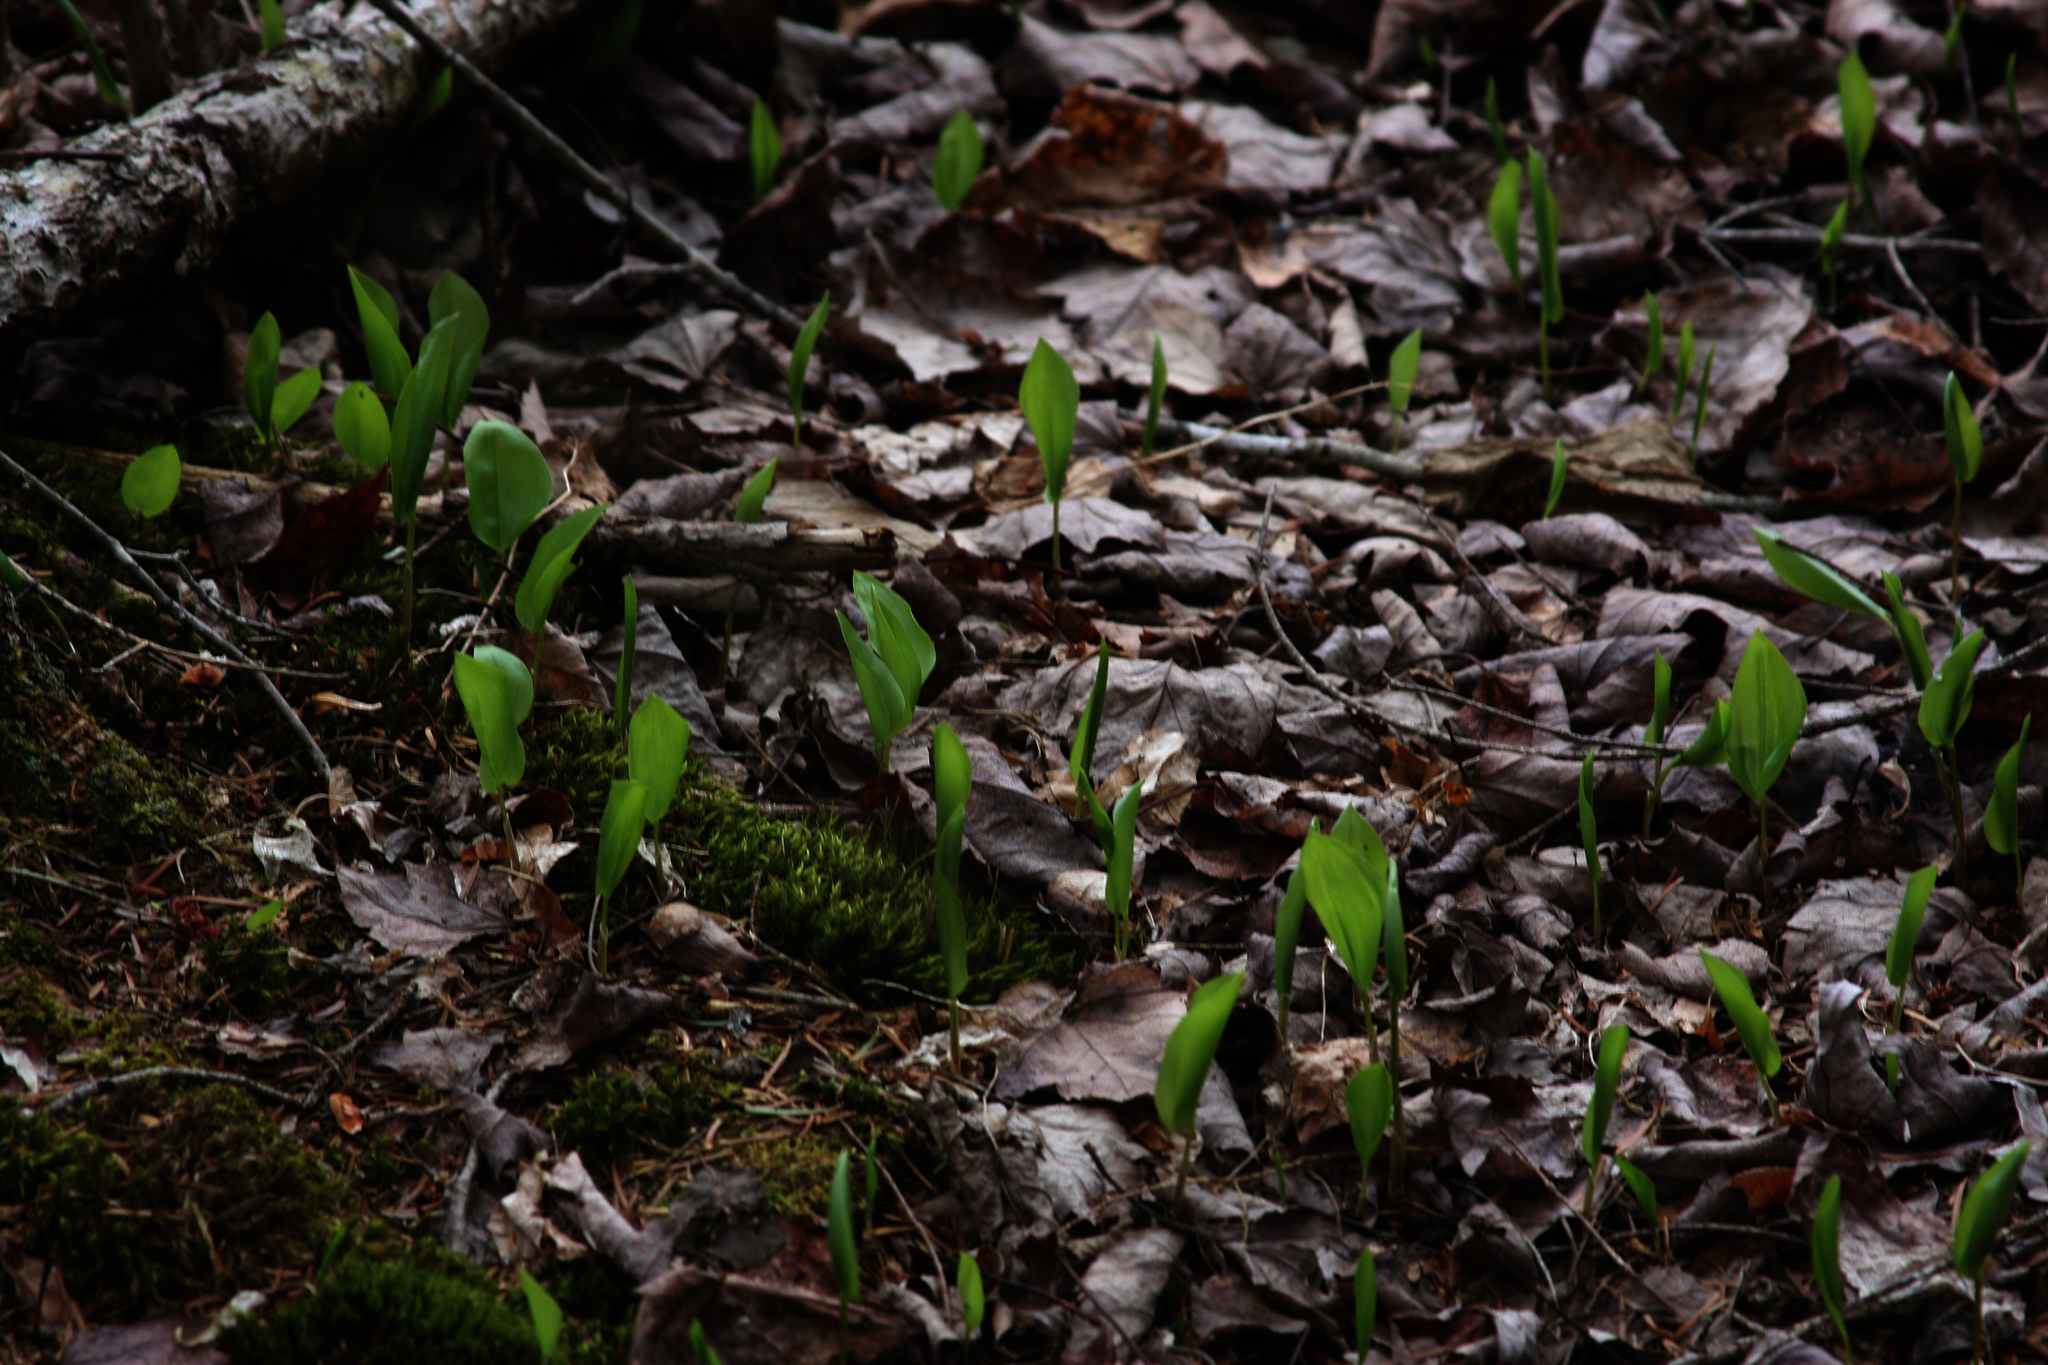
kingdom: Plantae
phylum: Tracheophyta
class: Liliopsida
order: Asparagales
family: Asparagaceae
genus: Maianthemum
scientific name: Maianthemum canadense
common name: False lily-of-the-valley
